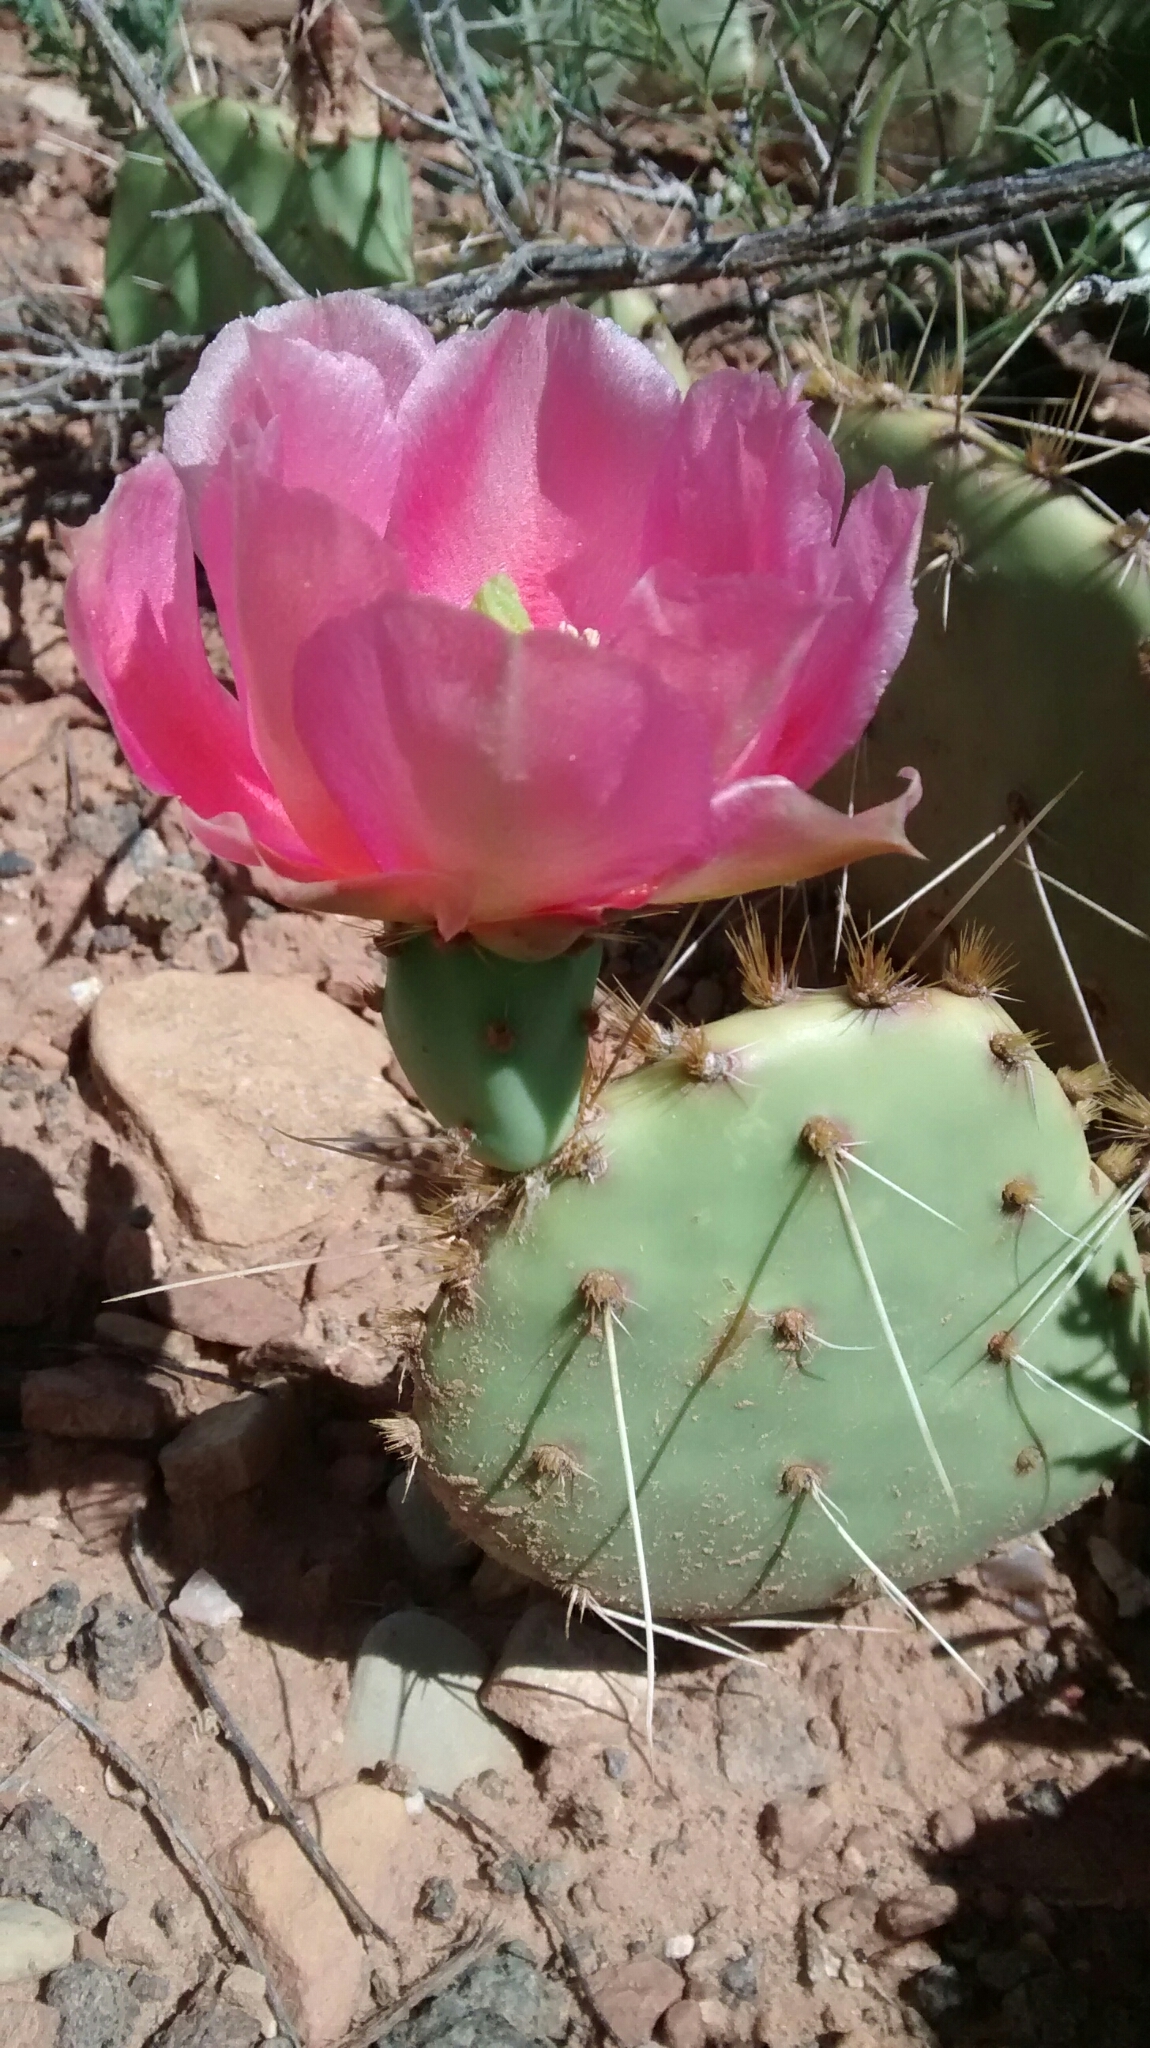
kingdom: Plantae
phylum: Tracheophyta
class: Magnoliopsida
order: Caryophyllales
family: Cactaceae
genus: Opuntia
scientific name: Opuntia polyacantha
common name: Plains prickly-pear
